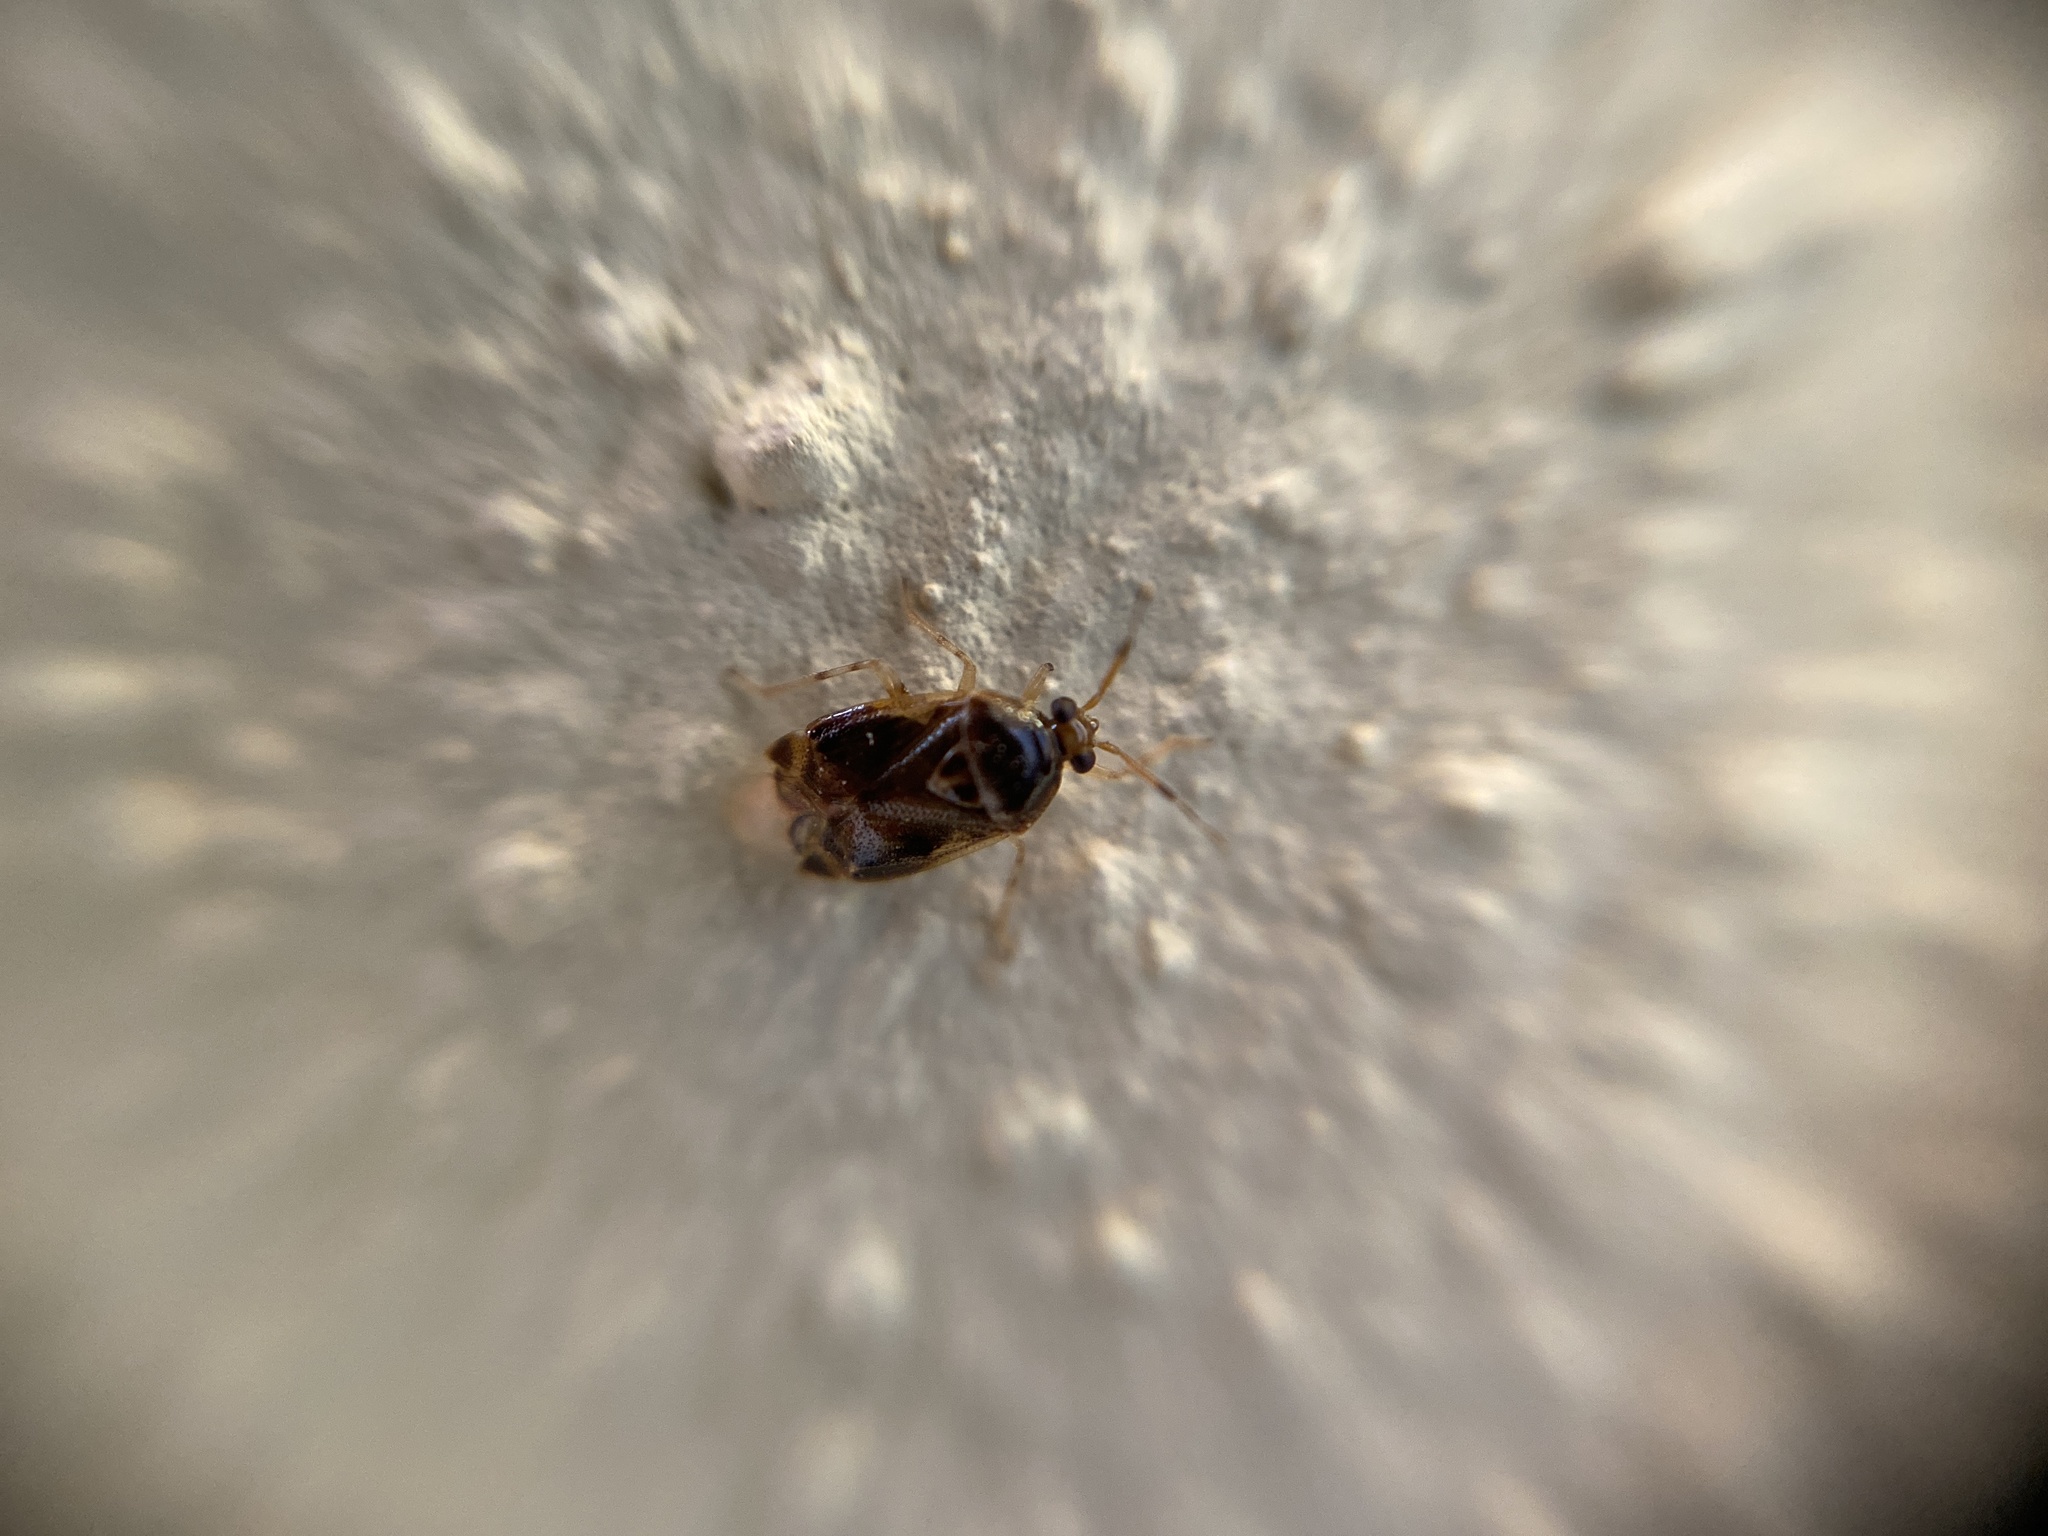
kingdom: Animalia
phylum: Arthropoda
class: Insecta
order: Hemiptera
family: Miridae
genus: Deraeocoris
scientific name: Deraeocoris lutescens
